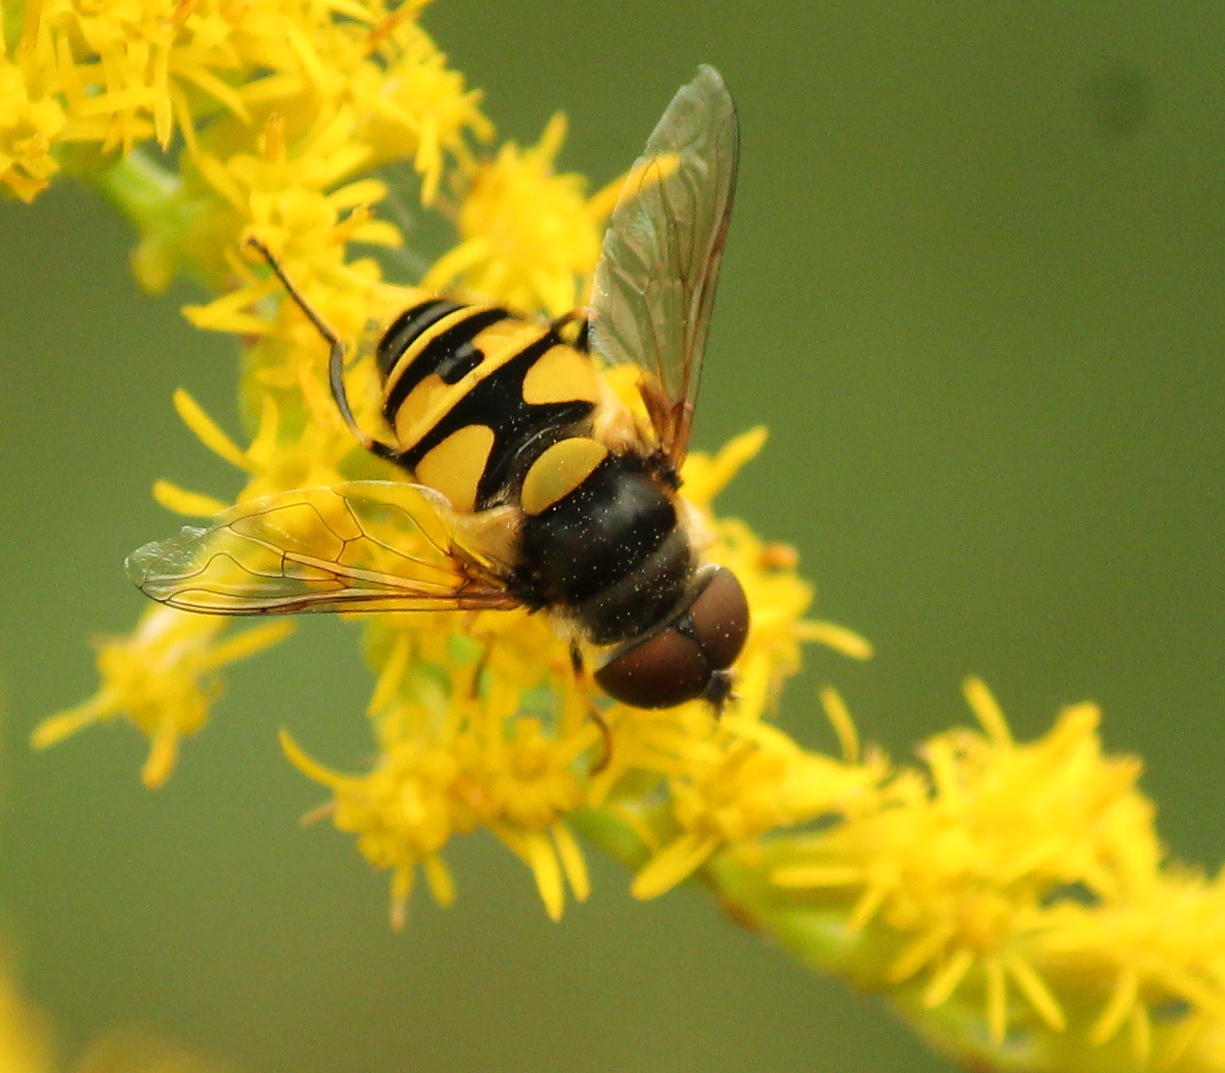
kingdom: Animalia
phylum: Arthropoda
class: Insecta
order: Diptera
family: Syrphidae
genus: Eristalis
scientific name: Eristalis transversa
